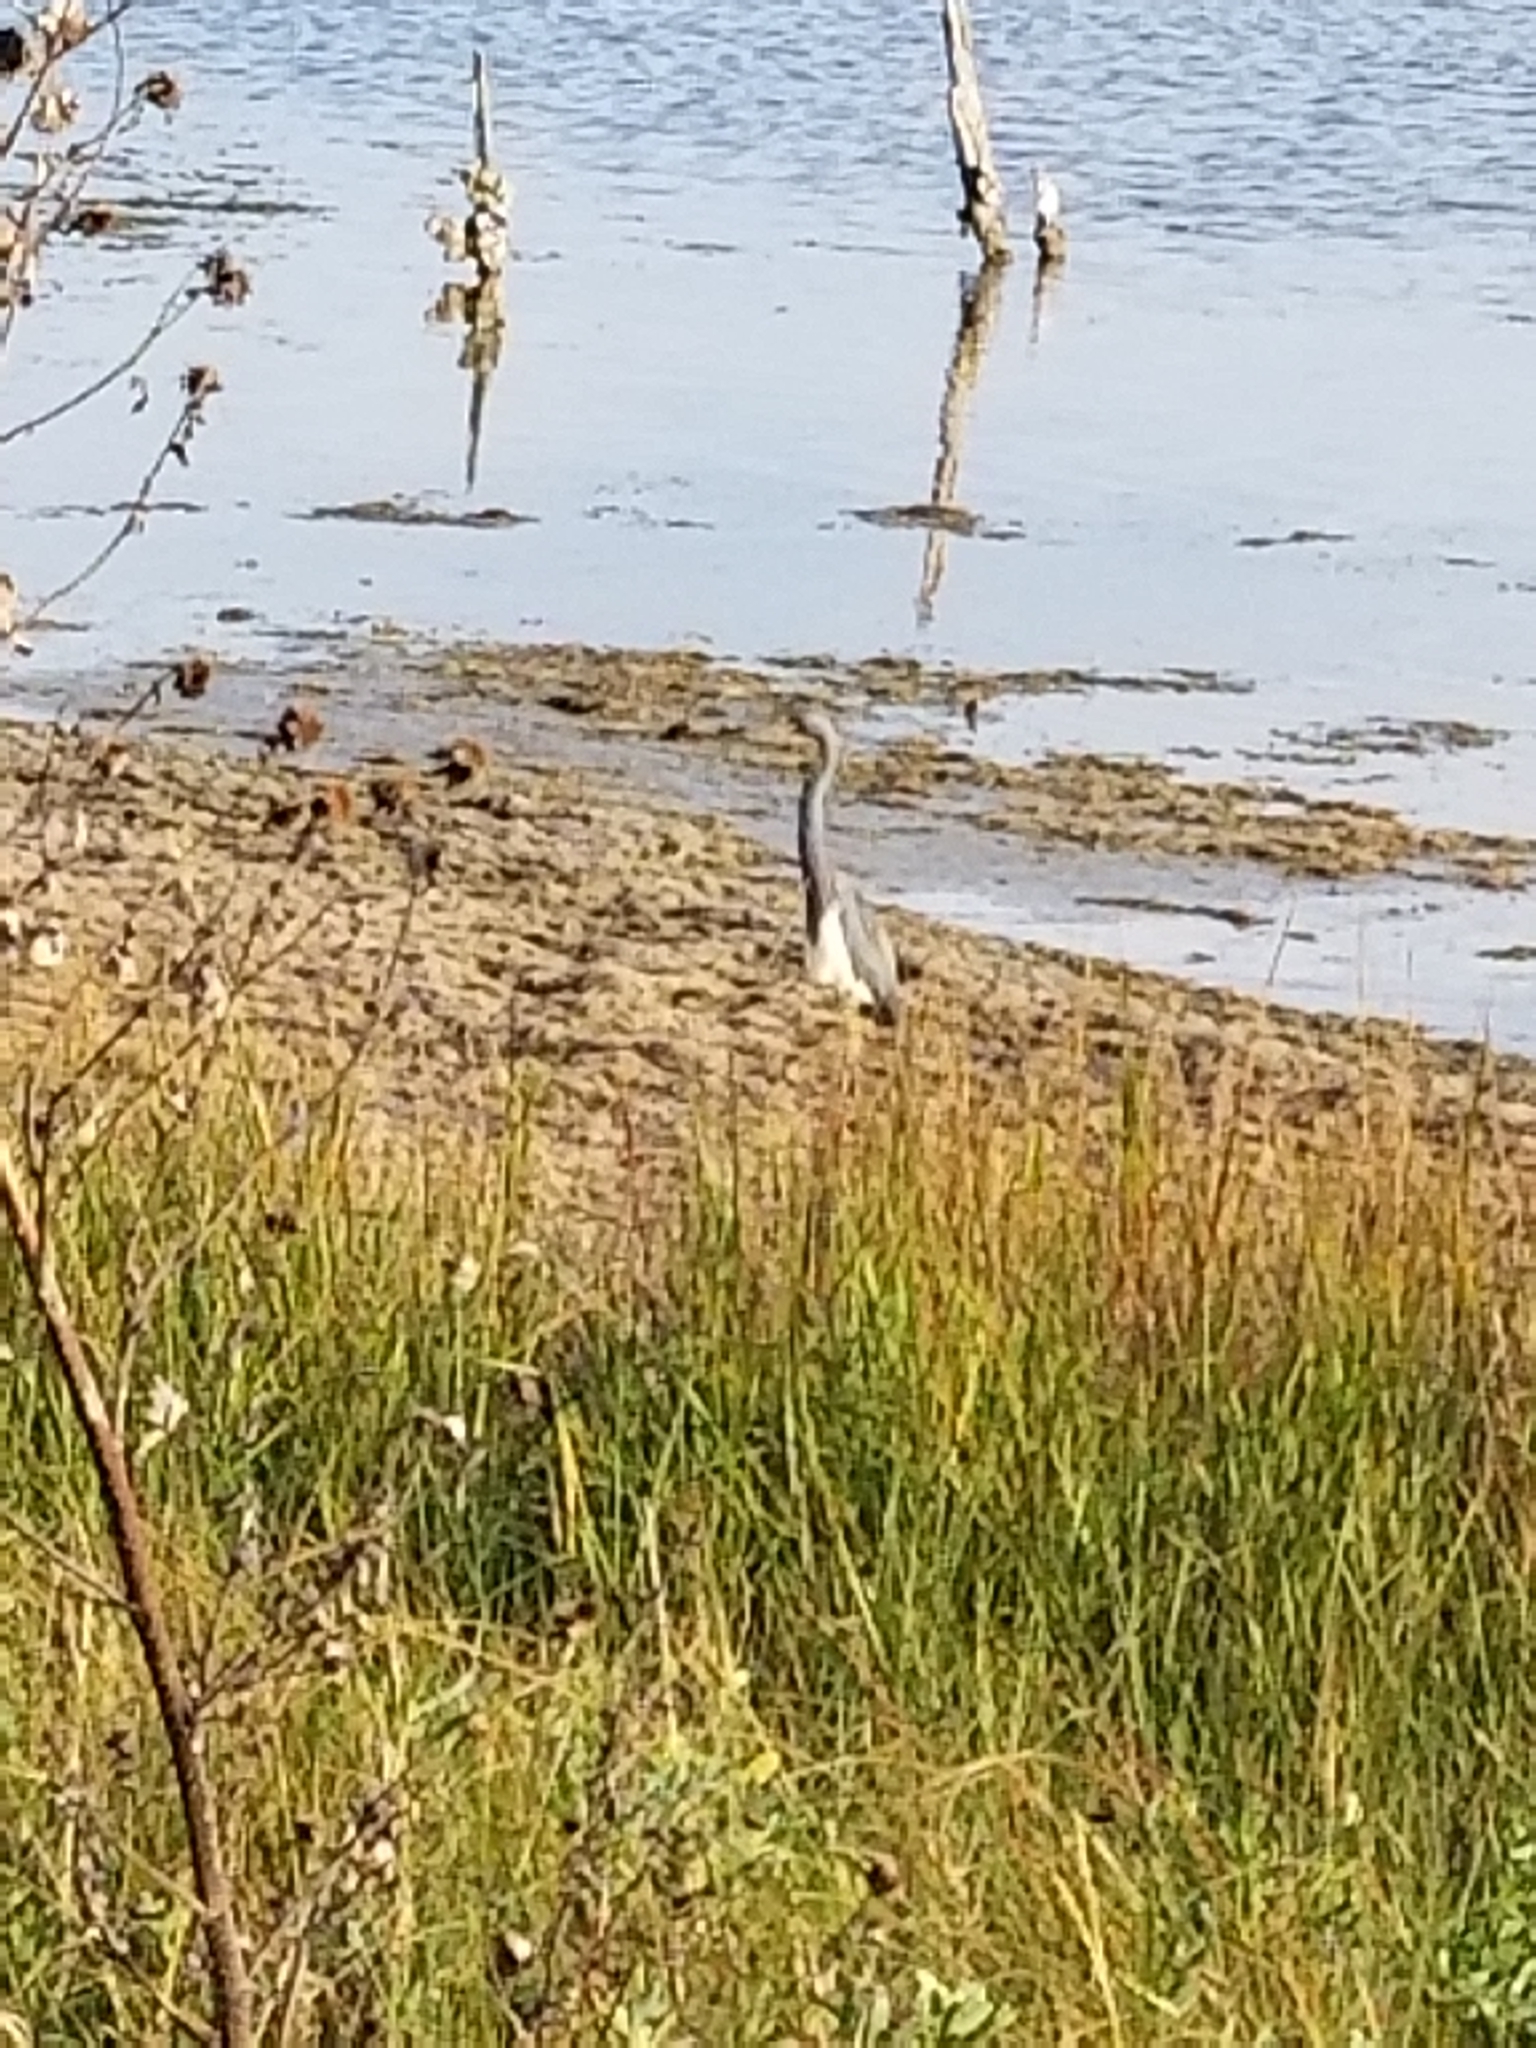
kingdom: Animalia
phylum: Chordata
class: Aves
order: Pelecaniformes
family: Ardeidae
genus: Egretta
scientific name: Egretta tricolor
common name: Tricolored heron
